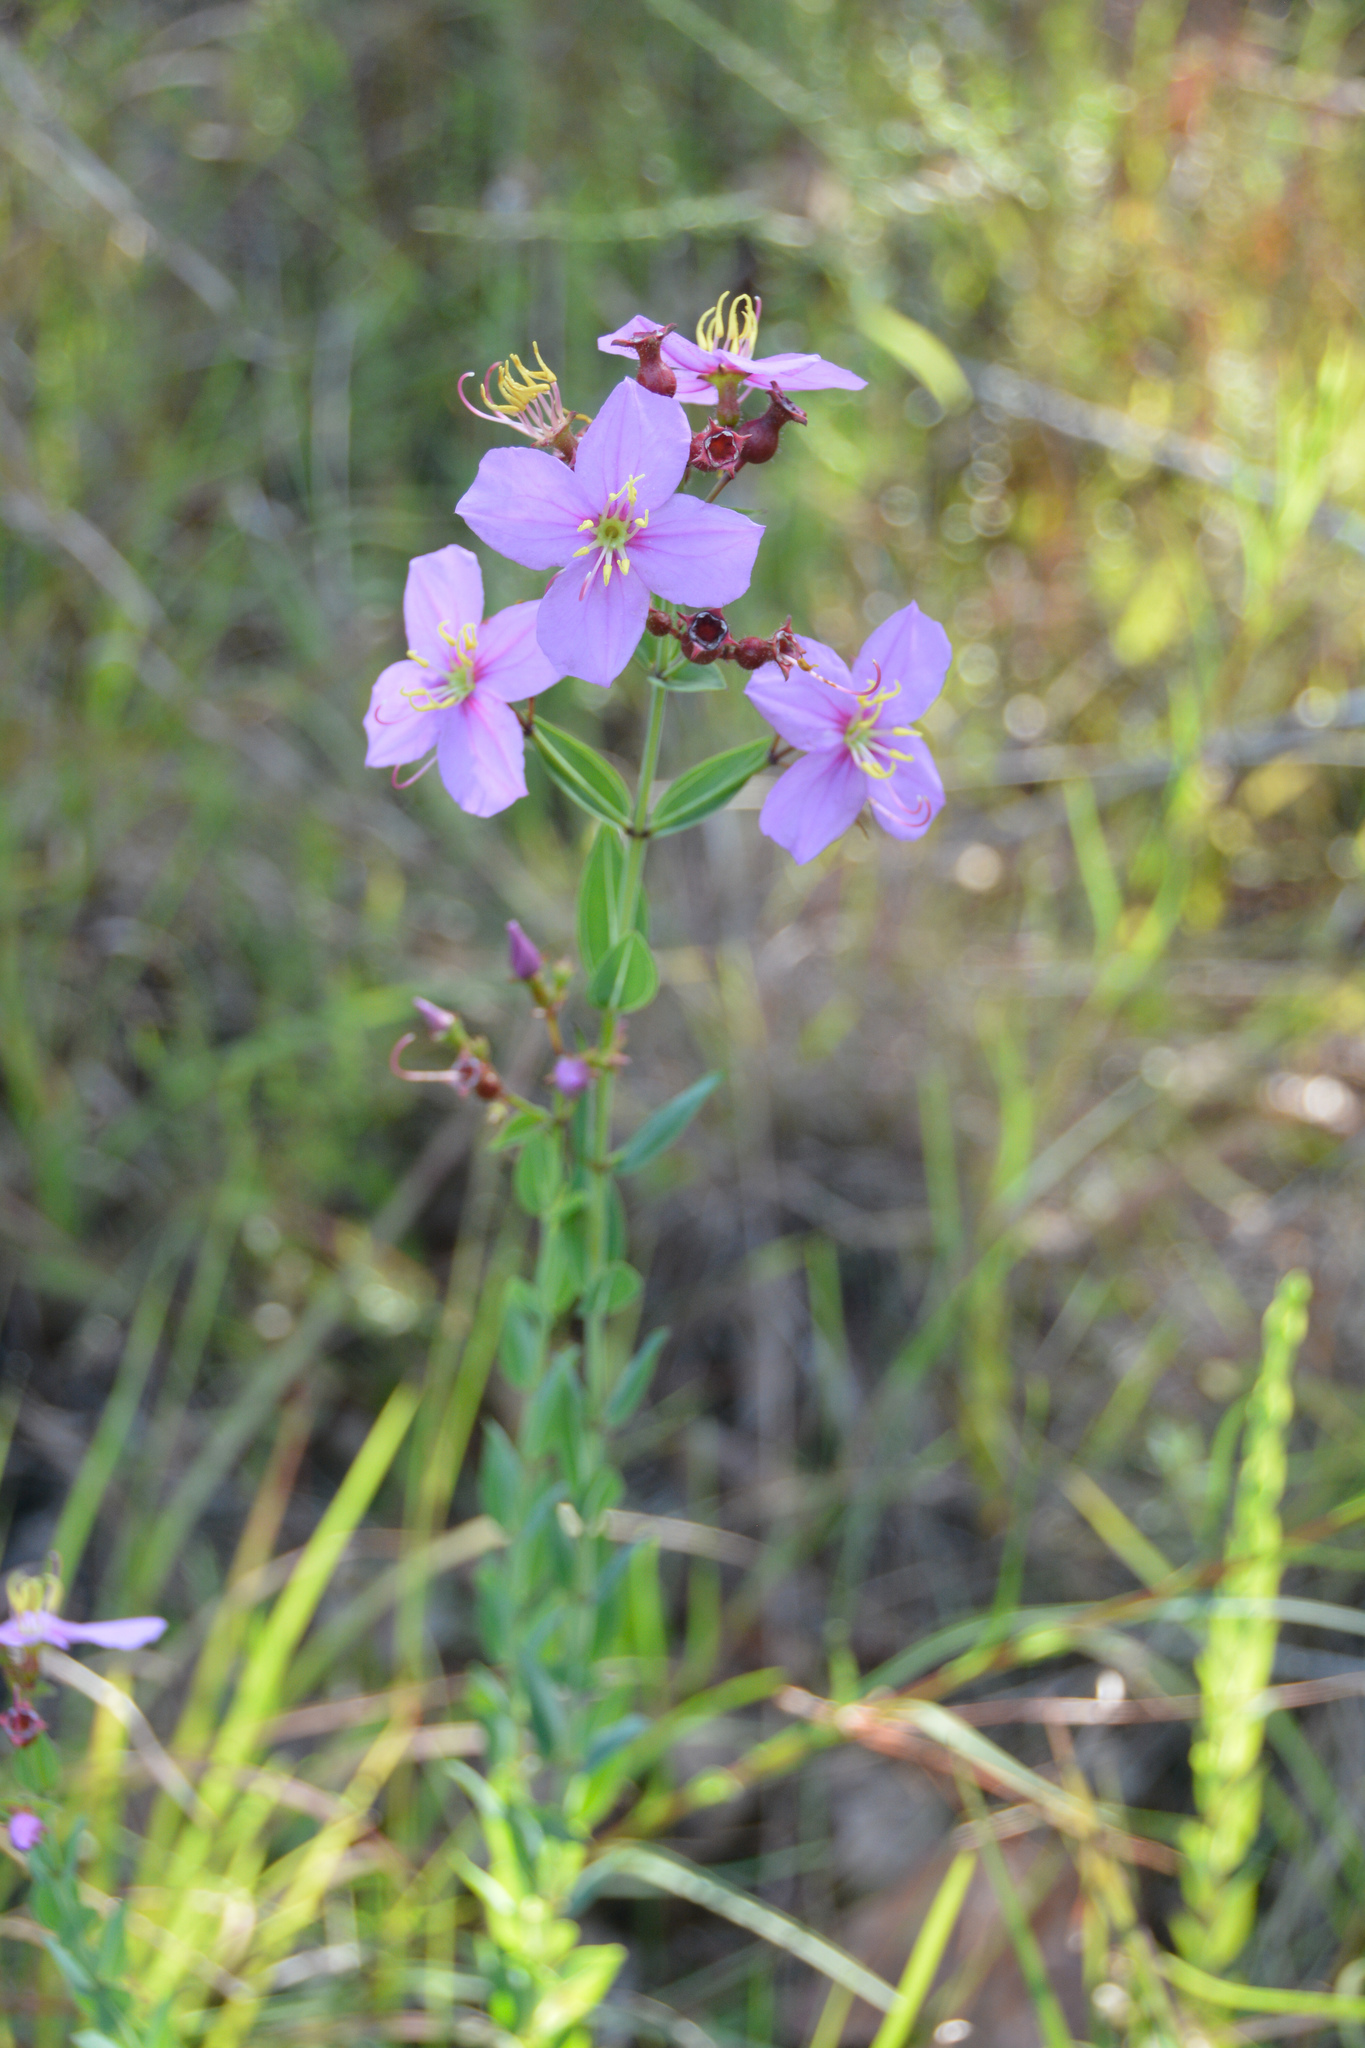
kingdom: Plantae
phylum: Tracheophyta
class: Magnoliopsida
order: Myrtales
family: Melastomataceae
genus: Rhexia
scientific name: Rhexia alifanus
